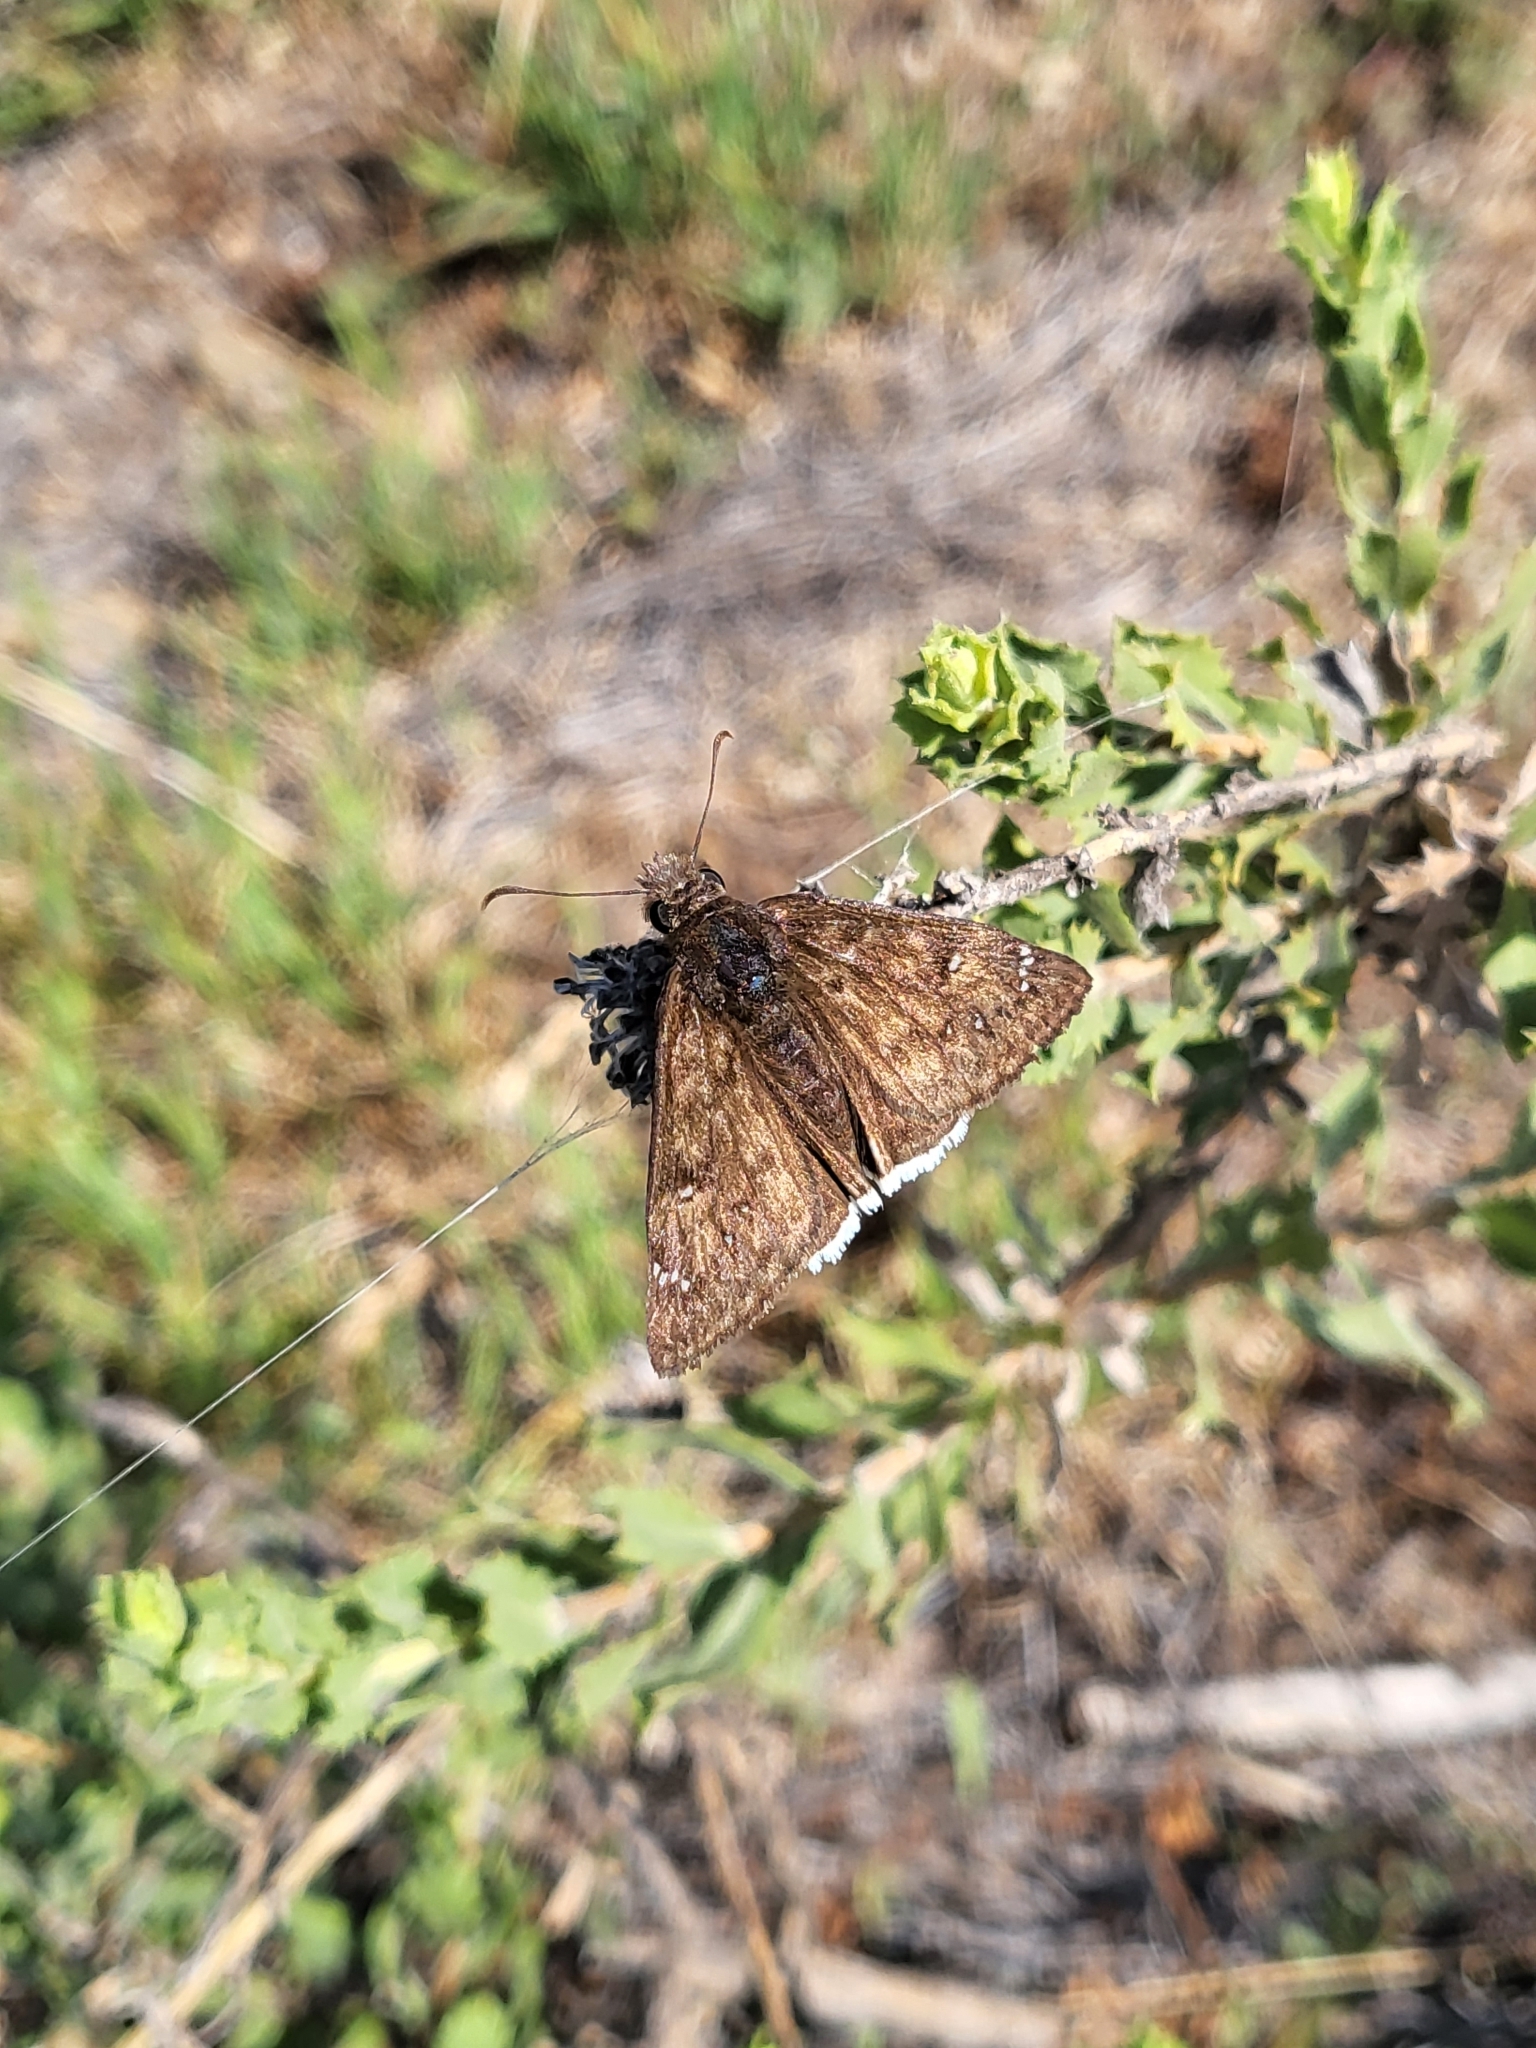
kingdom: Animalia
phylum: Arthropoda
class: Insecta
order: Lepidoptera
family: Hesperiidae
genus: Erynnis
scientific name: Erynnis tristis
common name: Mournful duskywing
